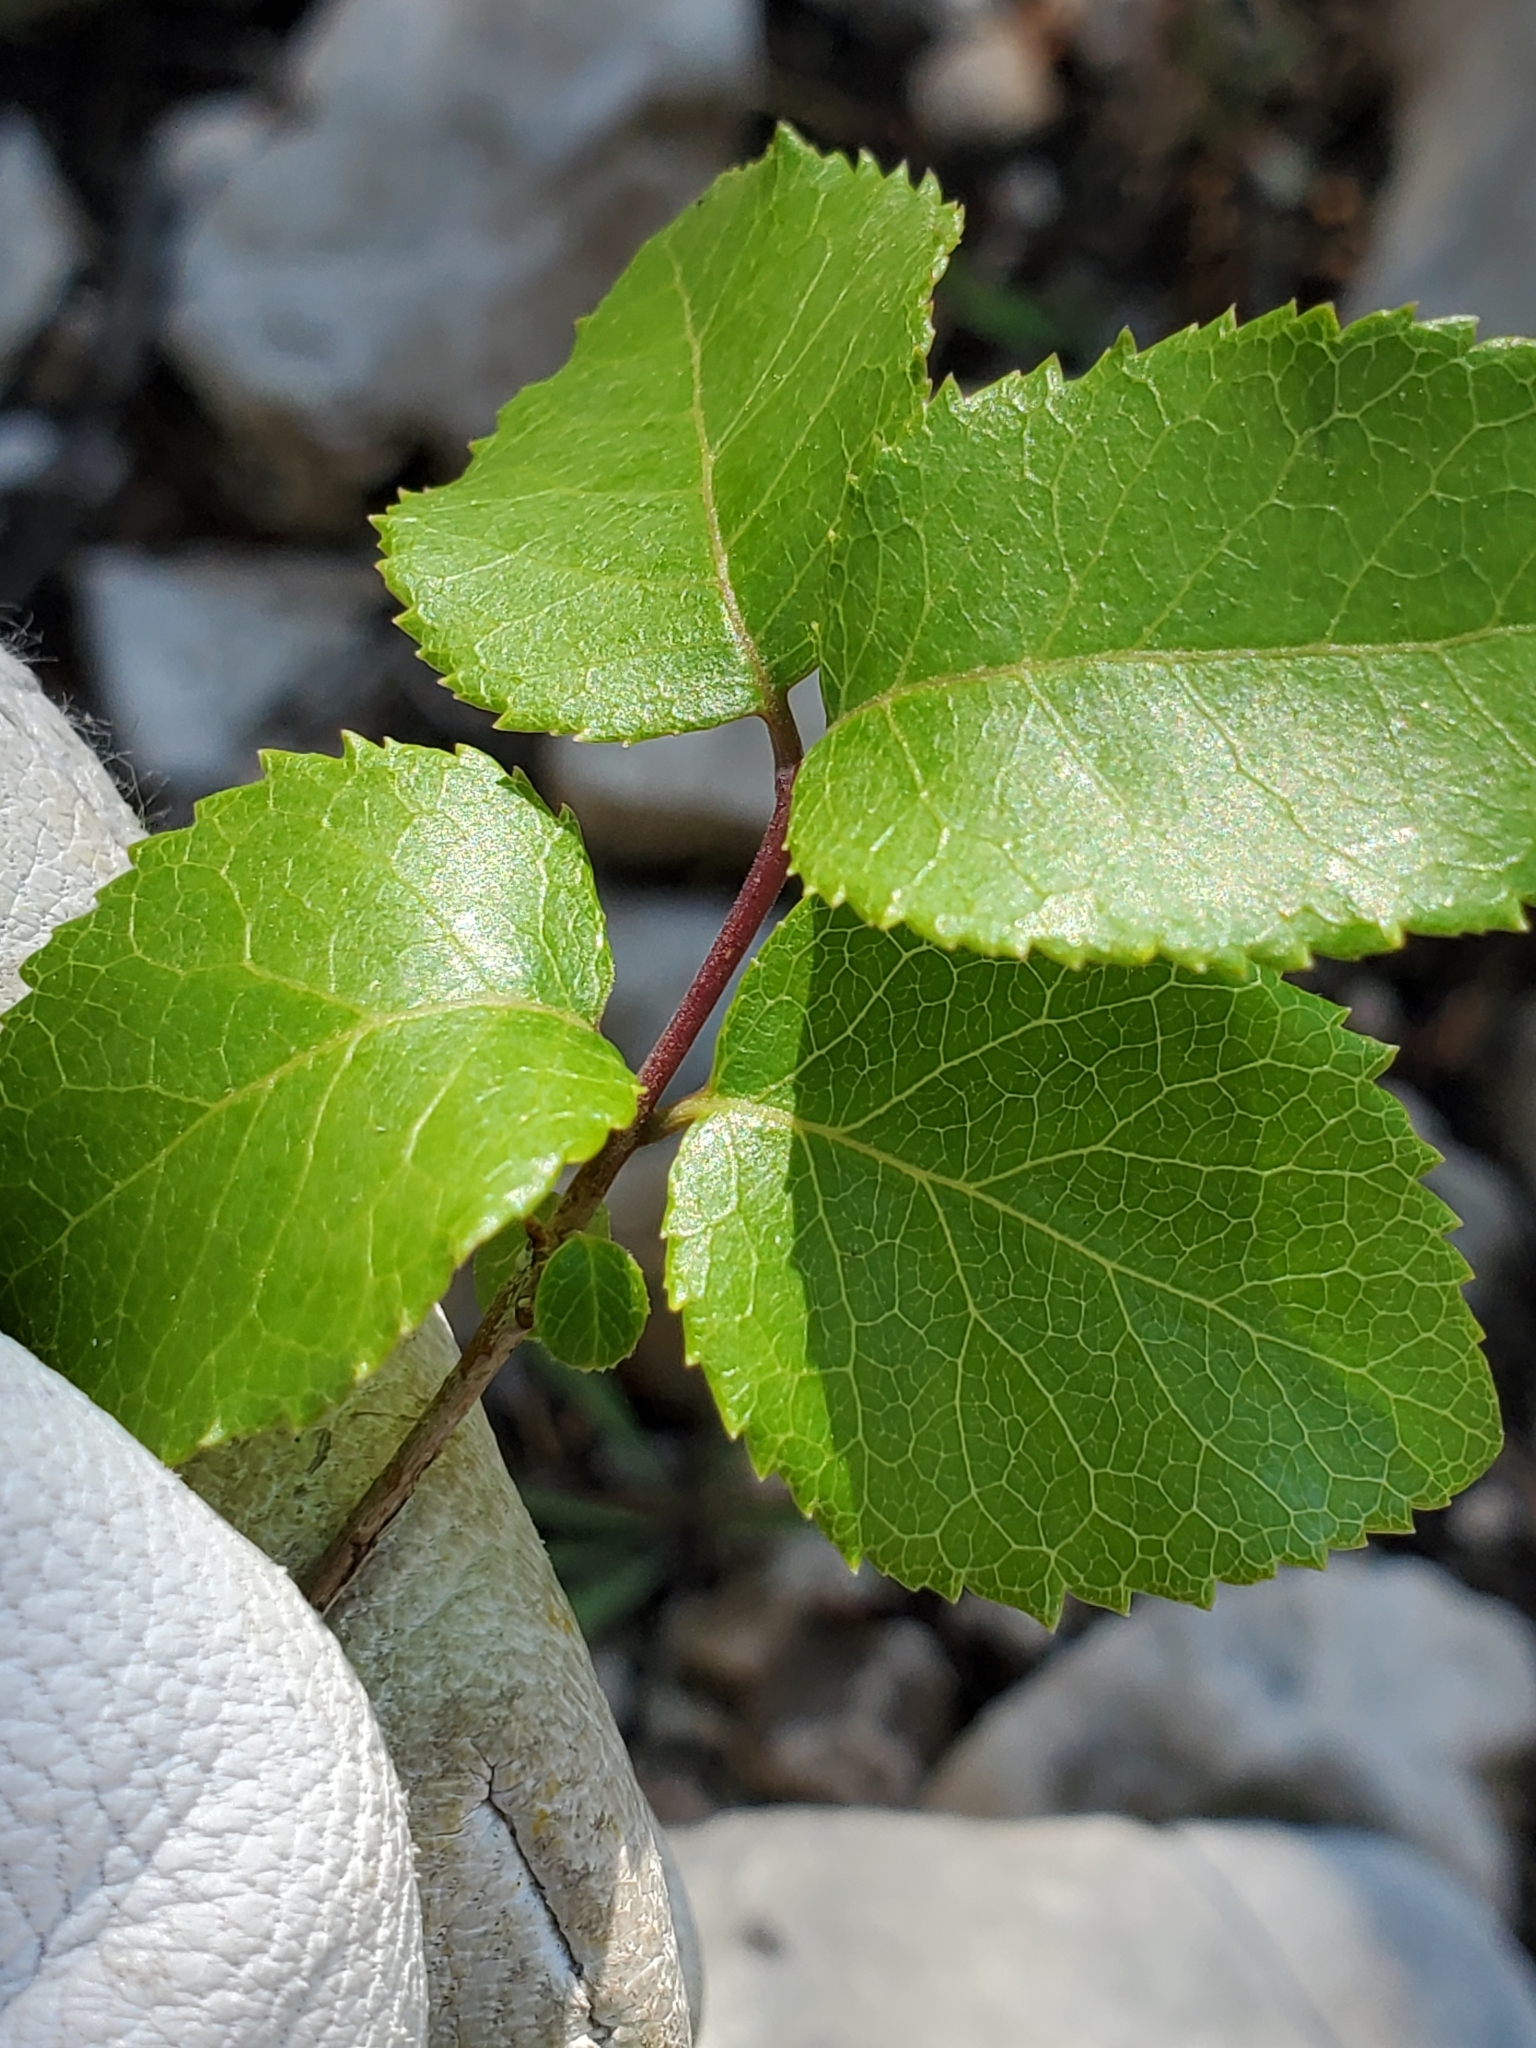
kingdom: Plantae
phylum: Tracheophyta
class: Magnoliopsida
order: Lamiales
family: Oleaceae
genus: Forestiera
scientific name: Forestiera reticulata
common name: Netleaf swamp-privet
